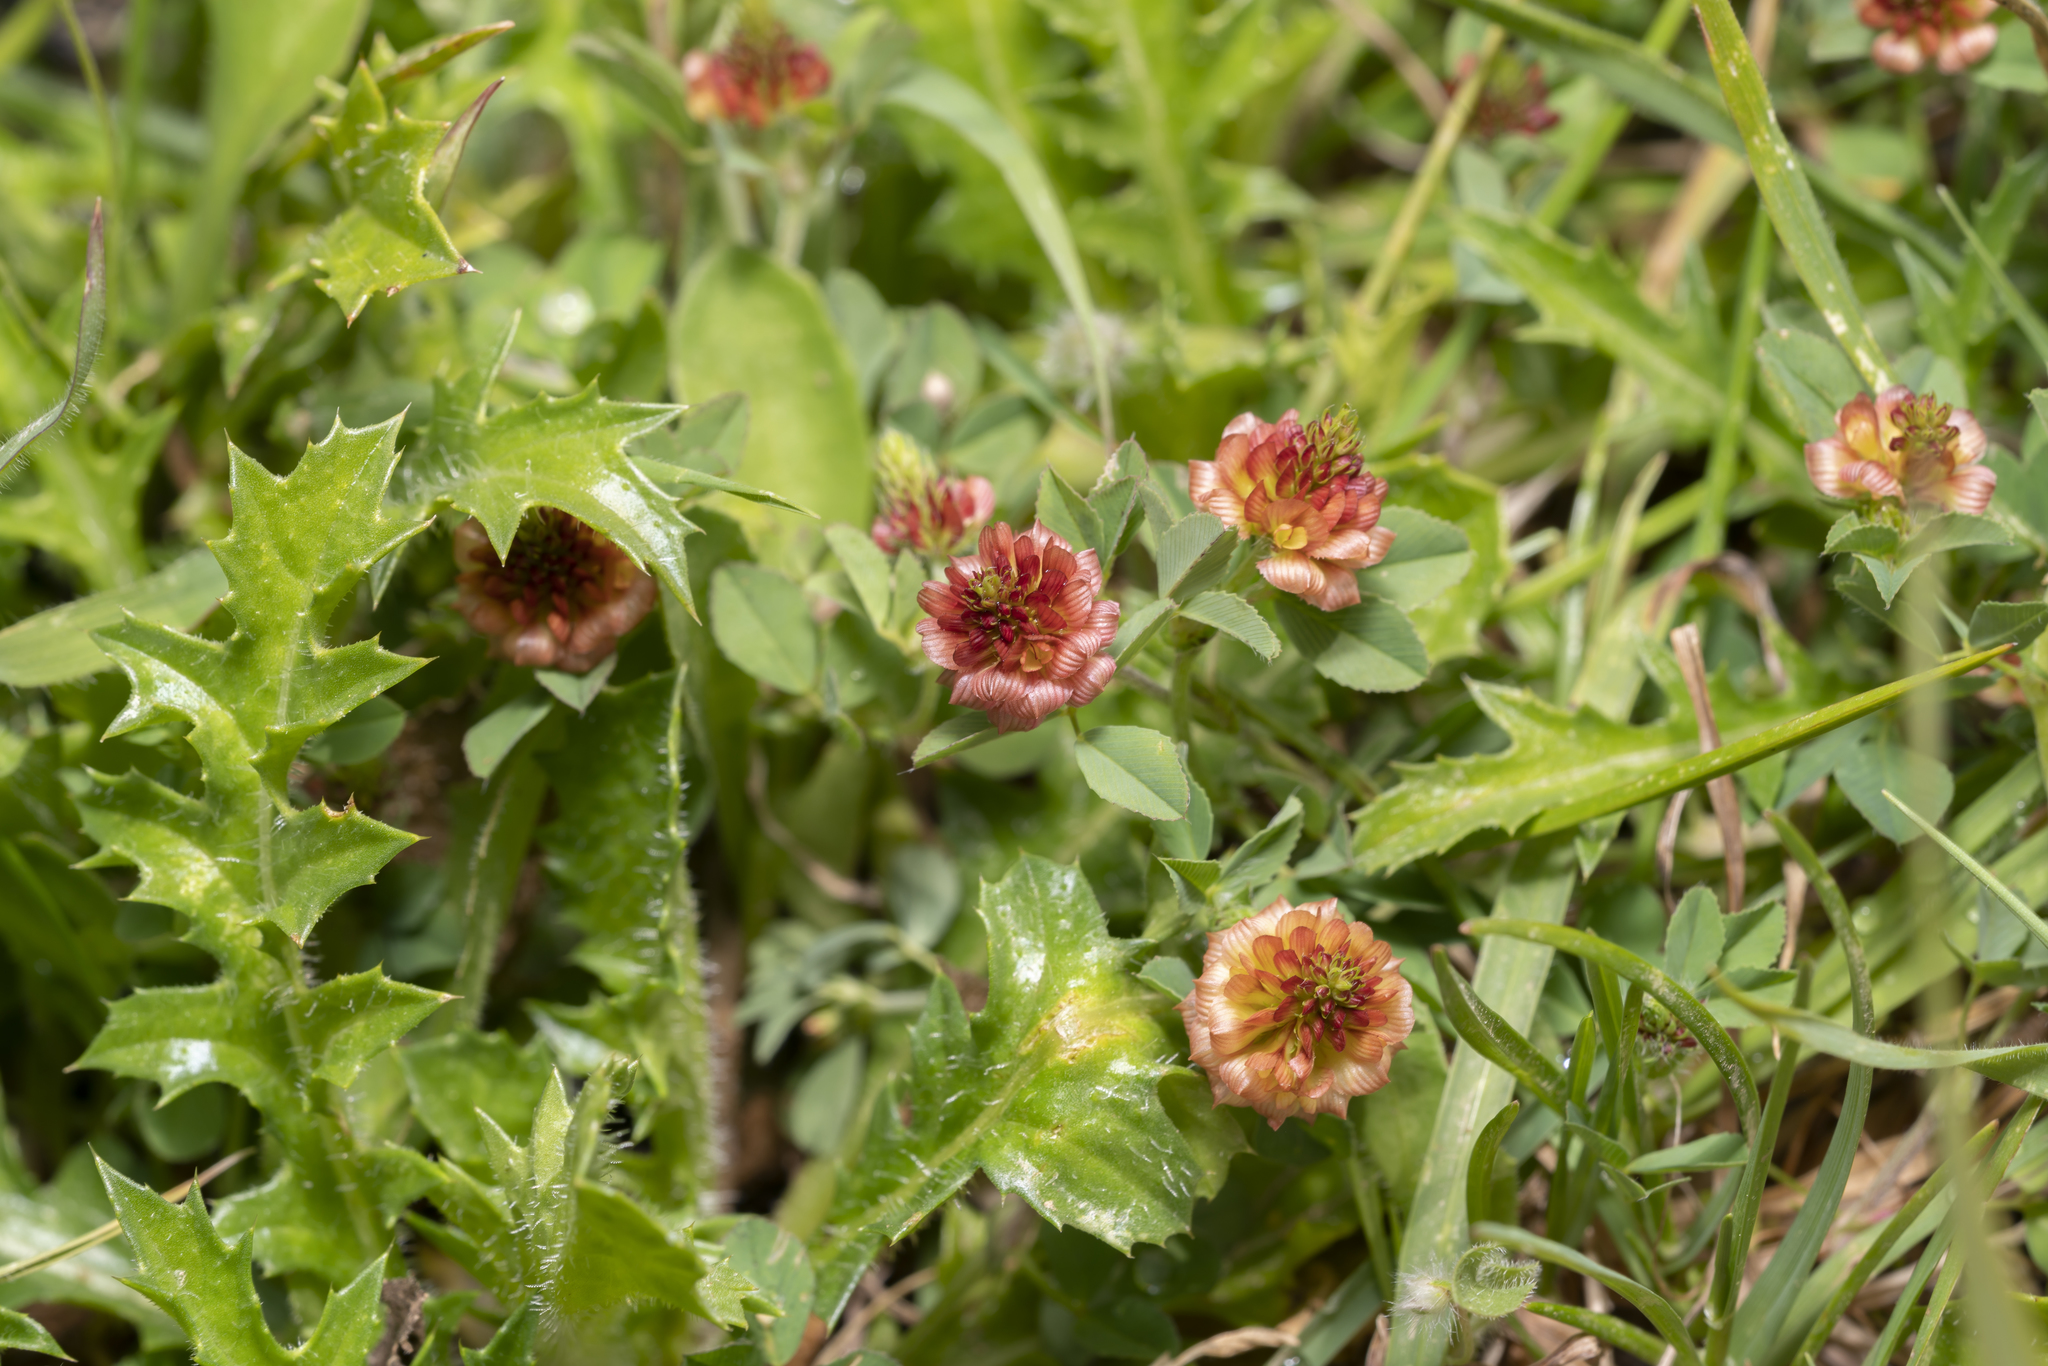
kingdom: Plantae
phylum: Tracheophyta
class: Magnoliopsida
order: Fabales
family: Fabaceae
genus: Trifolium
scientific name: Trifolium campestre
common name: Field clover
